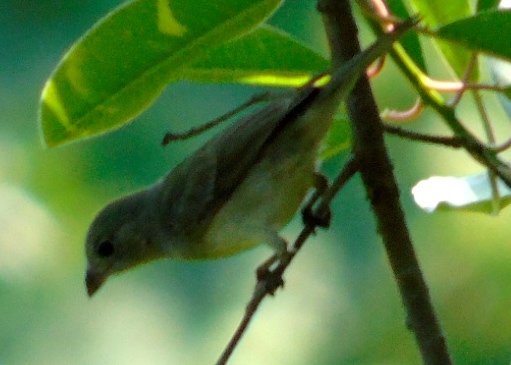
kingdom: Animalia
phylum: Chordata
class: Aves
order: Passeriformes
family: Cardinalidae
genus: Passerina
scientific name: Passerina
